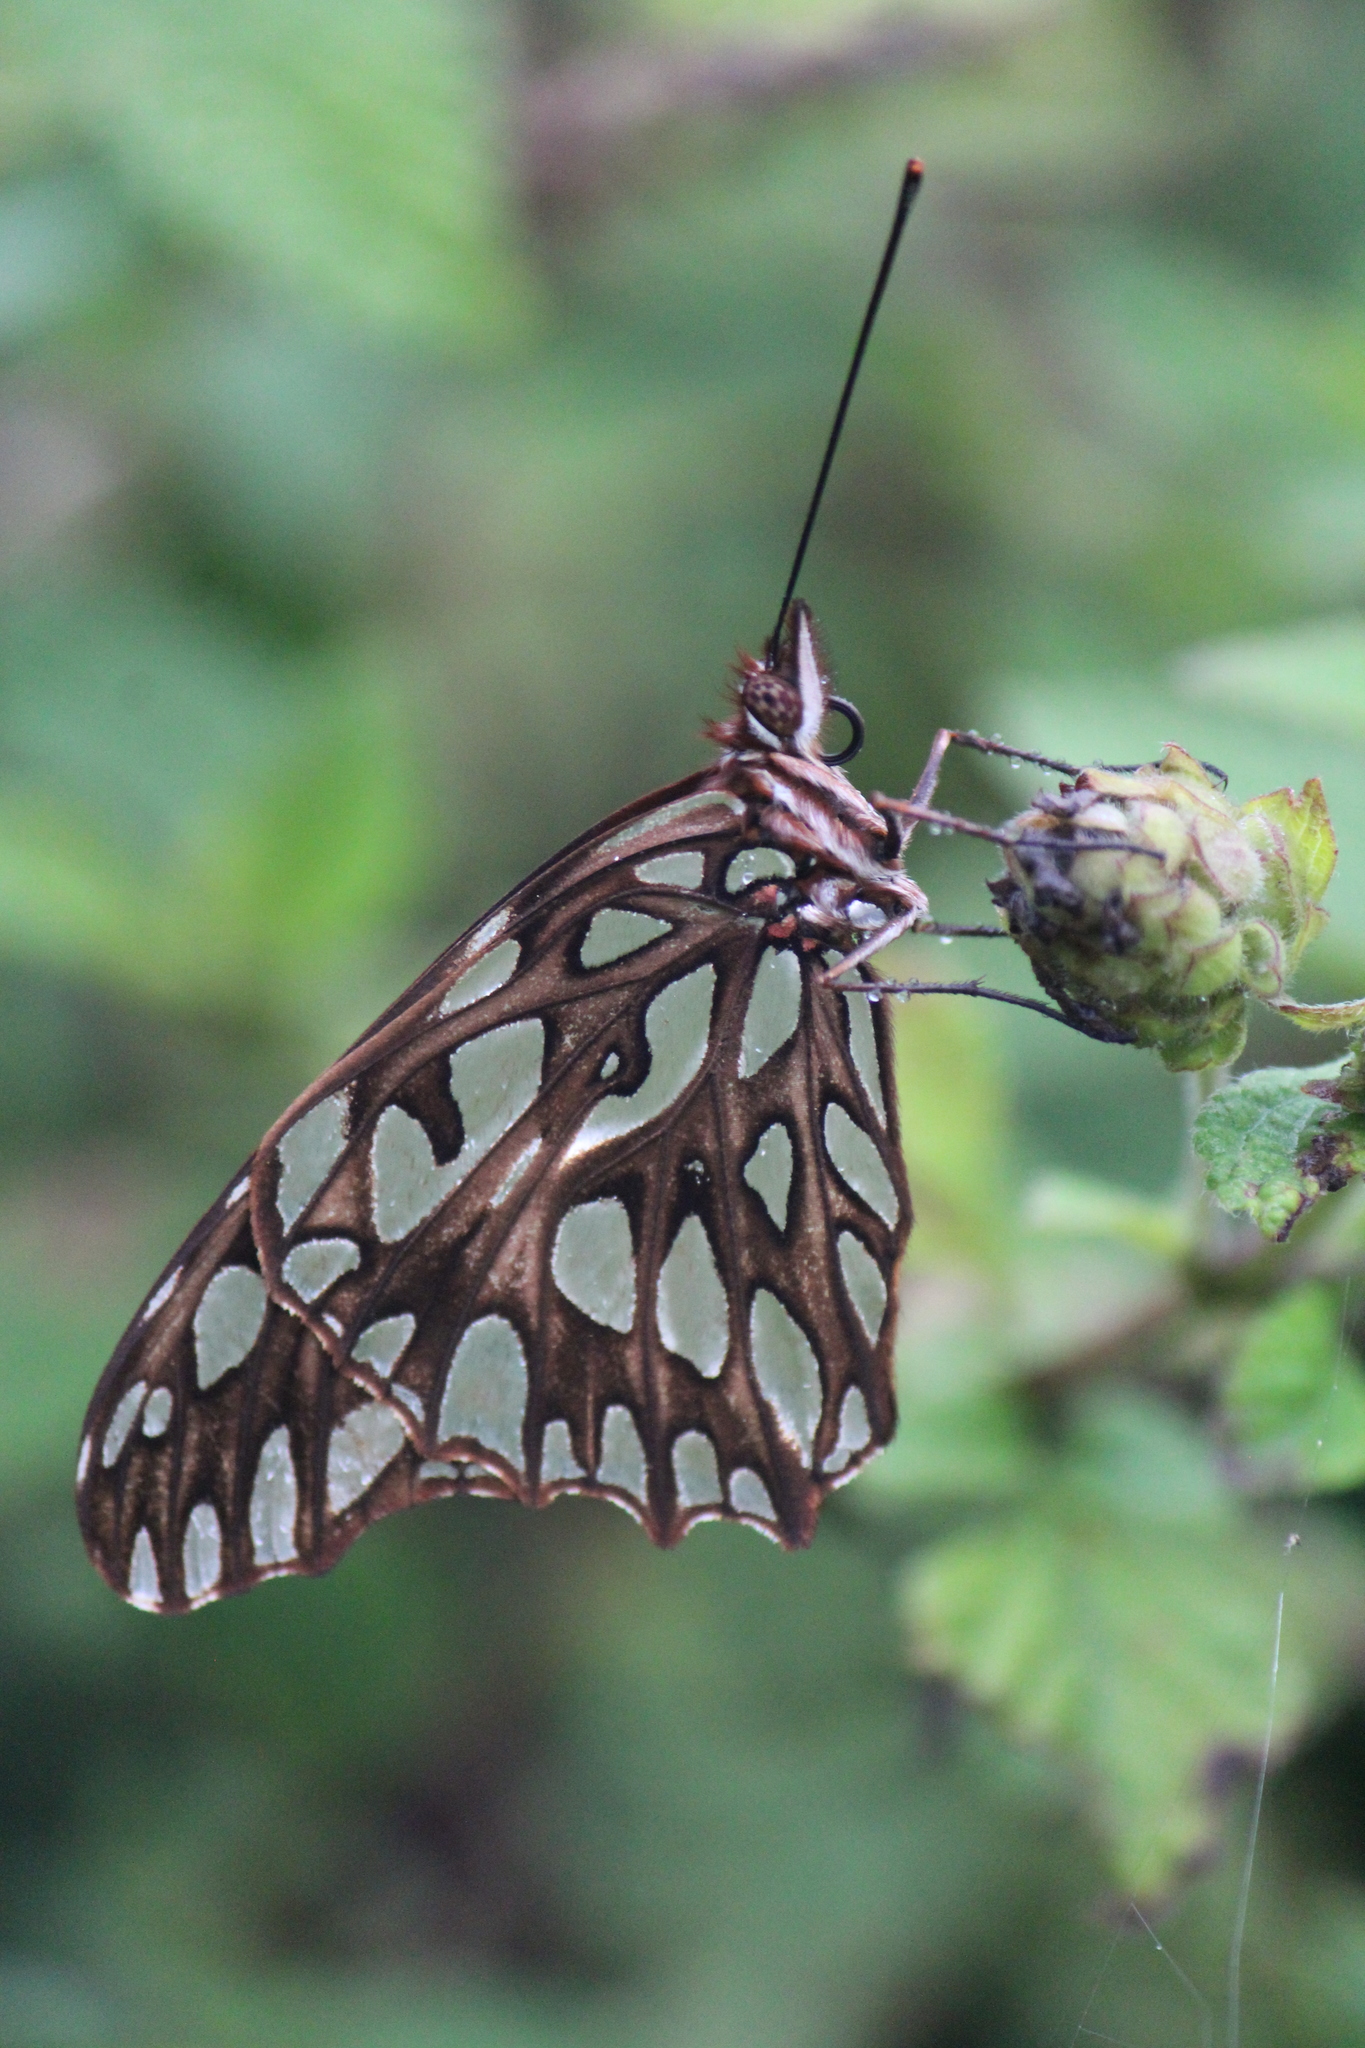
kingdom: Animalia
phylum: Arthropoda
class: Insecta
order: Lepidoptera
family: Nymphalidae
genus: Dione
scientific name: Dione moneta
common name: Mexican silverspot
